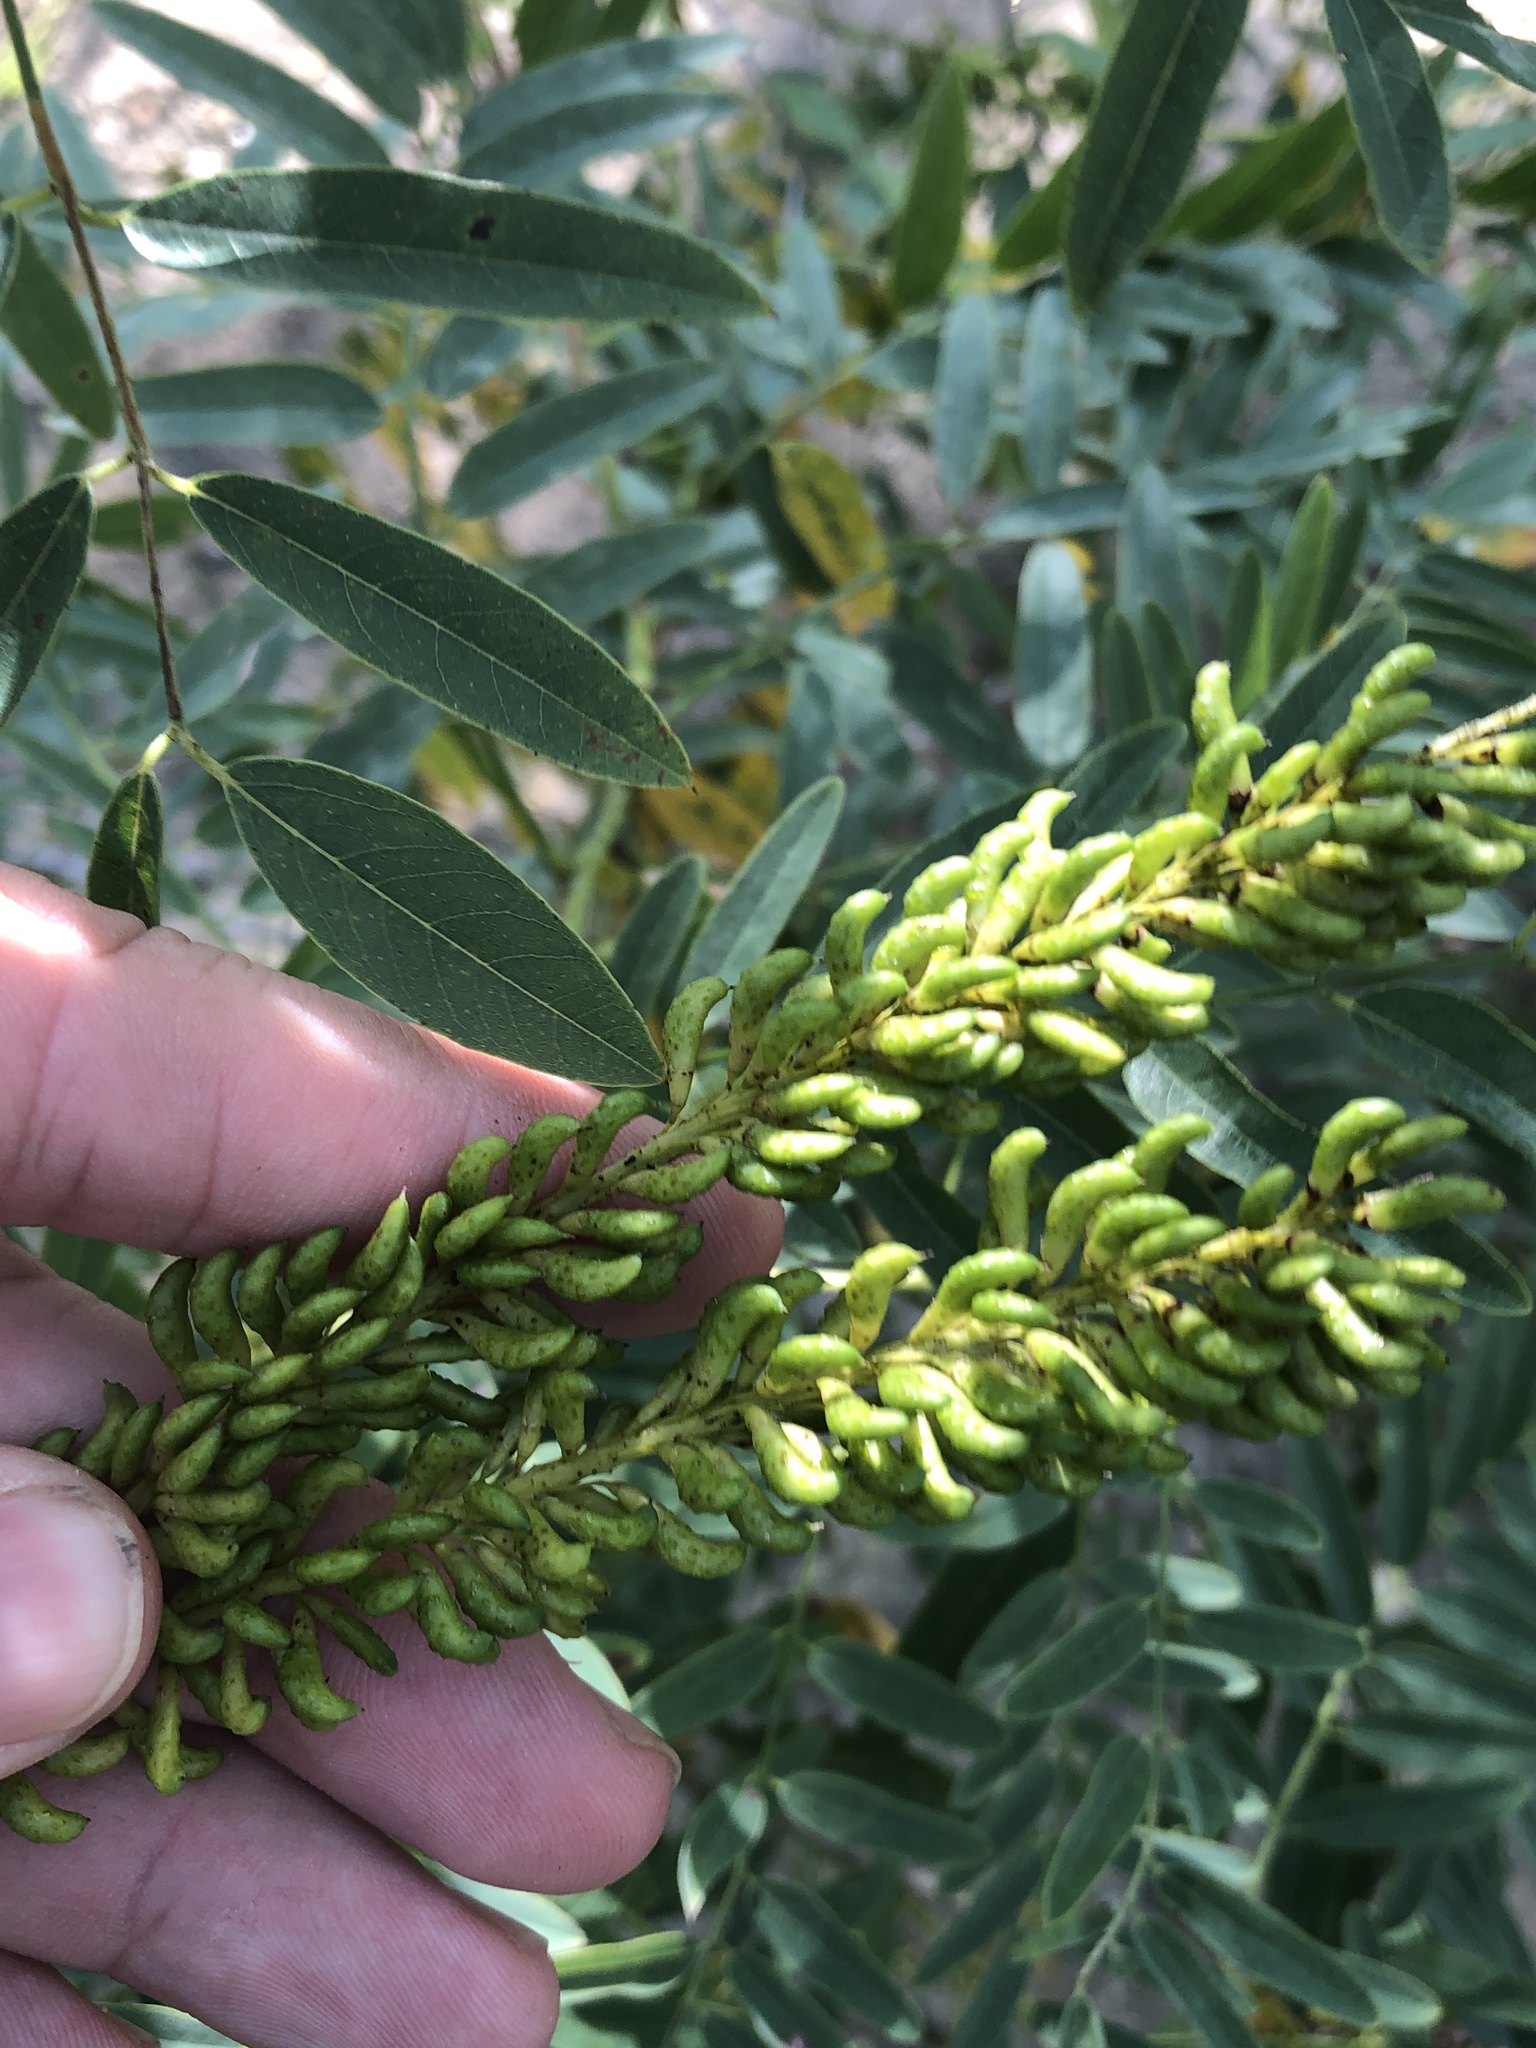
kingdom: Plantae
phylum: Tracheophyta
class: Magnoliopsida
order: Fabales
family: Fabaceae
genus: Amorpha
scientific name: Amorpha fruticosa
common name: False indigo
